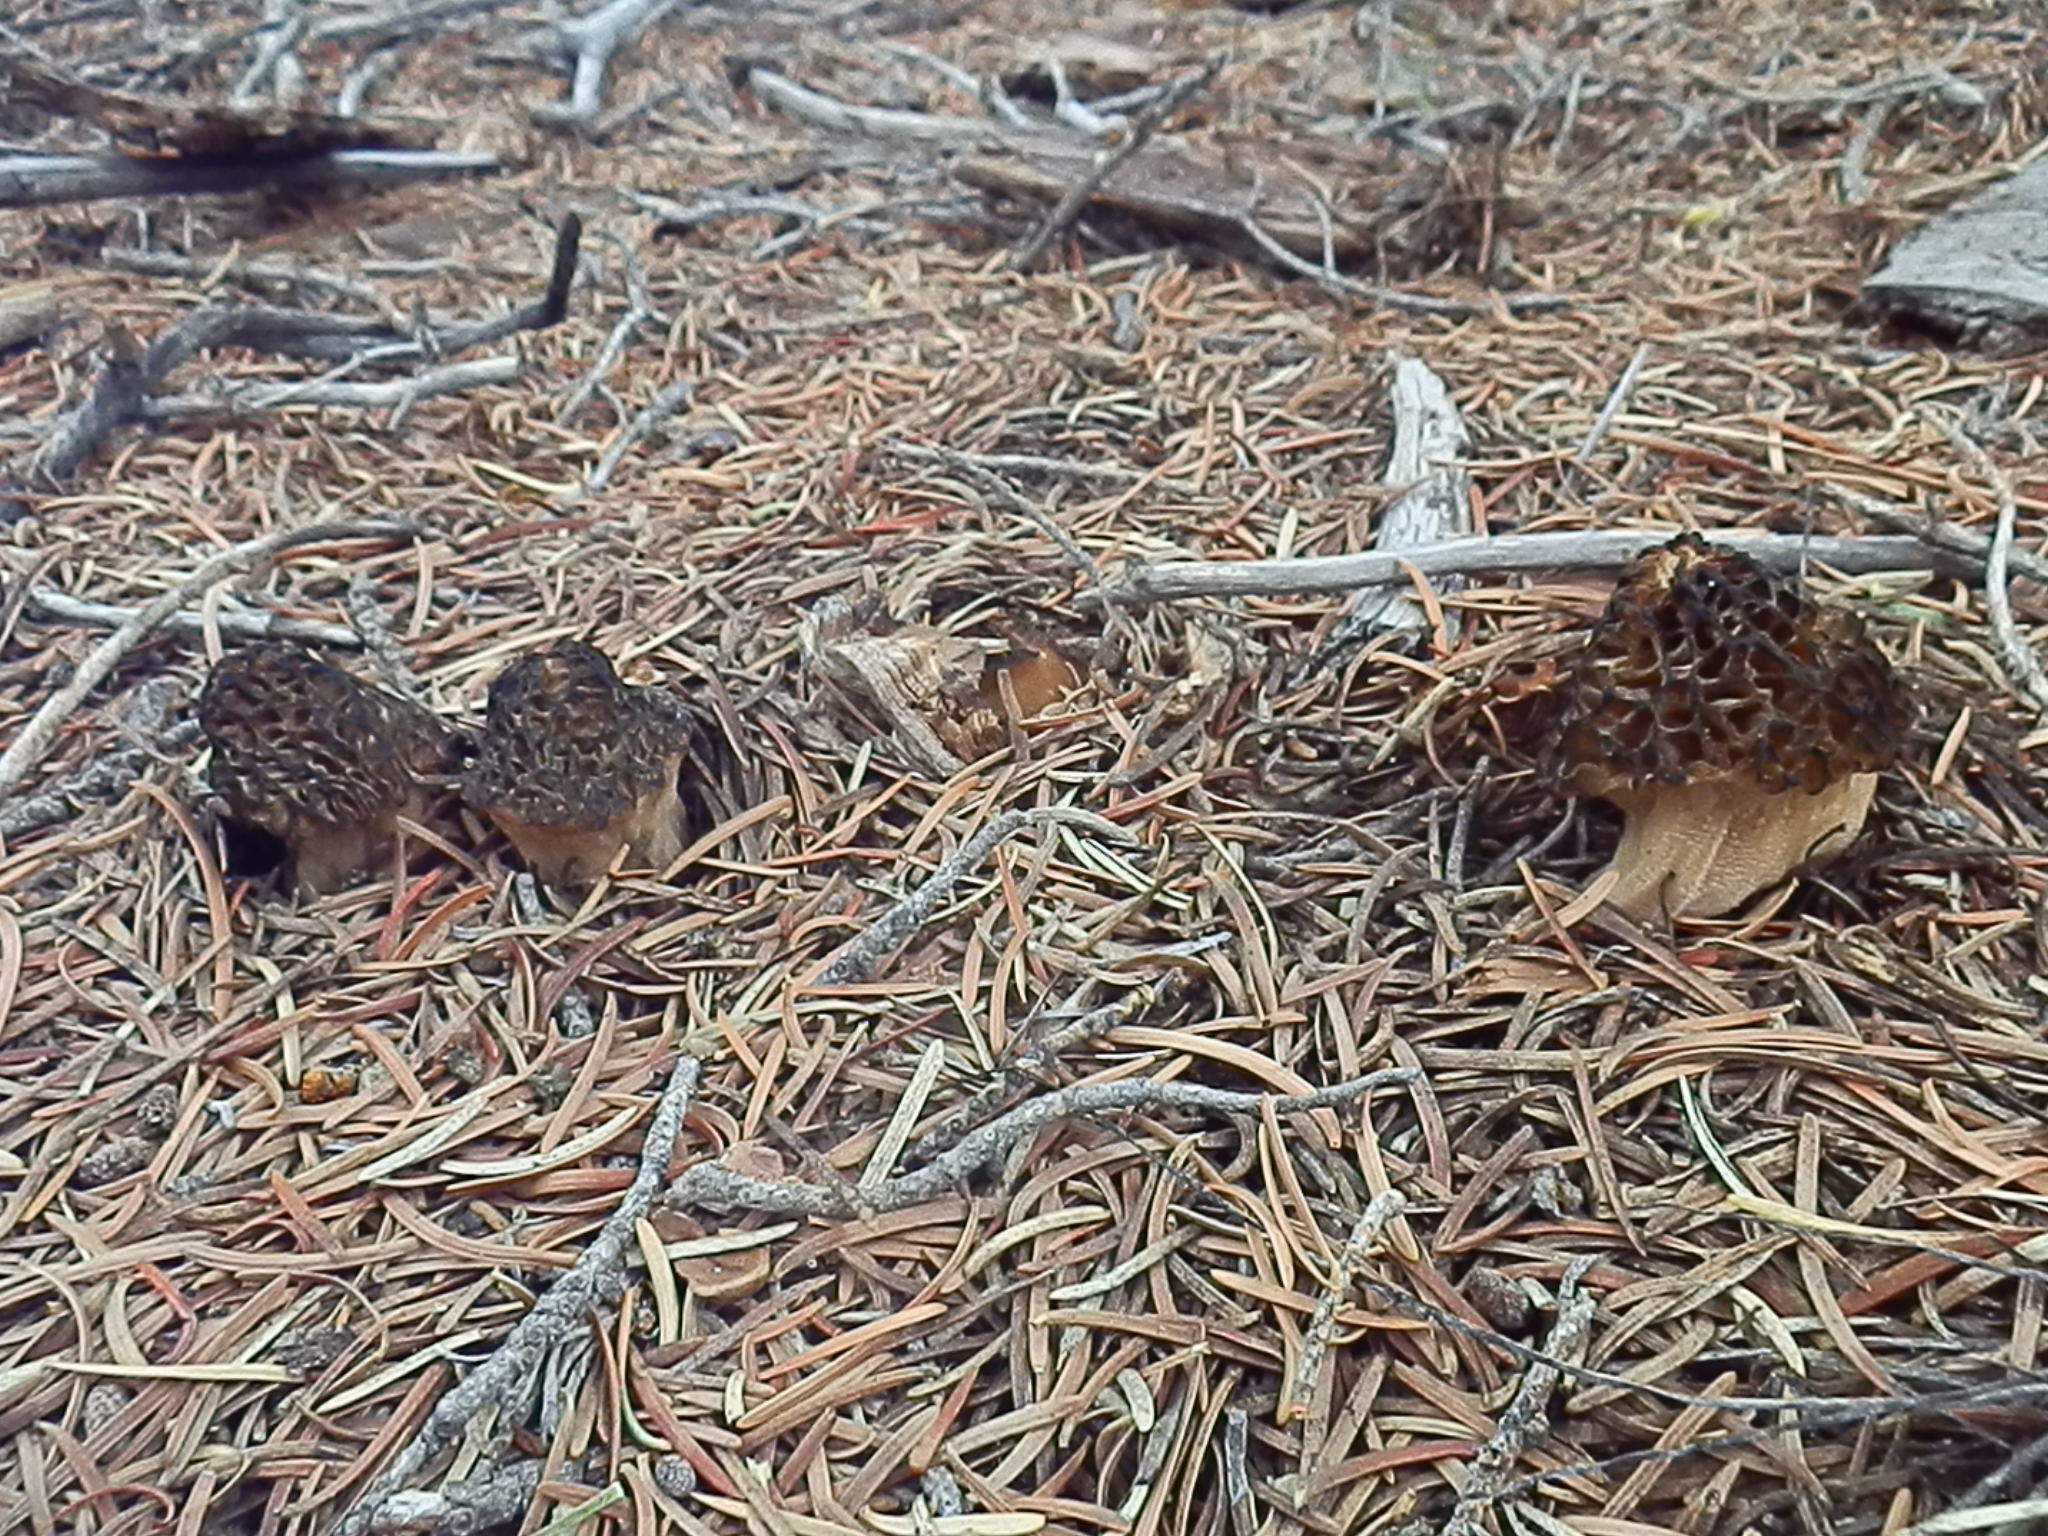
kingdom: Fungi
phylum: Ascomycota
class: Pezizomycetes
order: Pezizales
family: Morchellaceae
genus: Morchella
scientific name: Morchella sextelata
